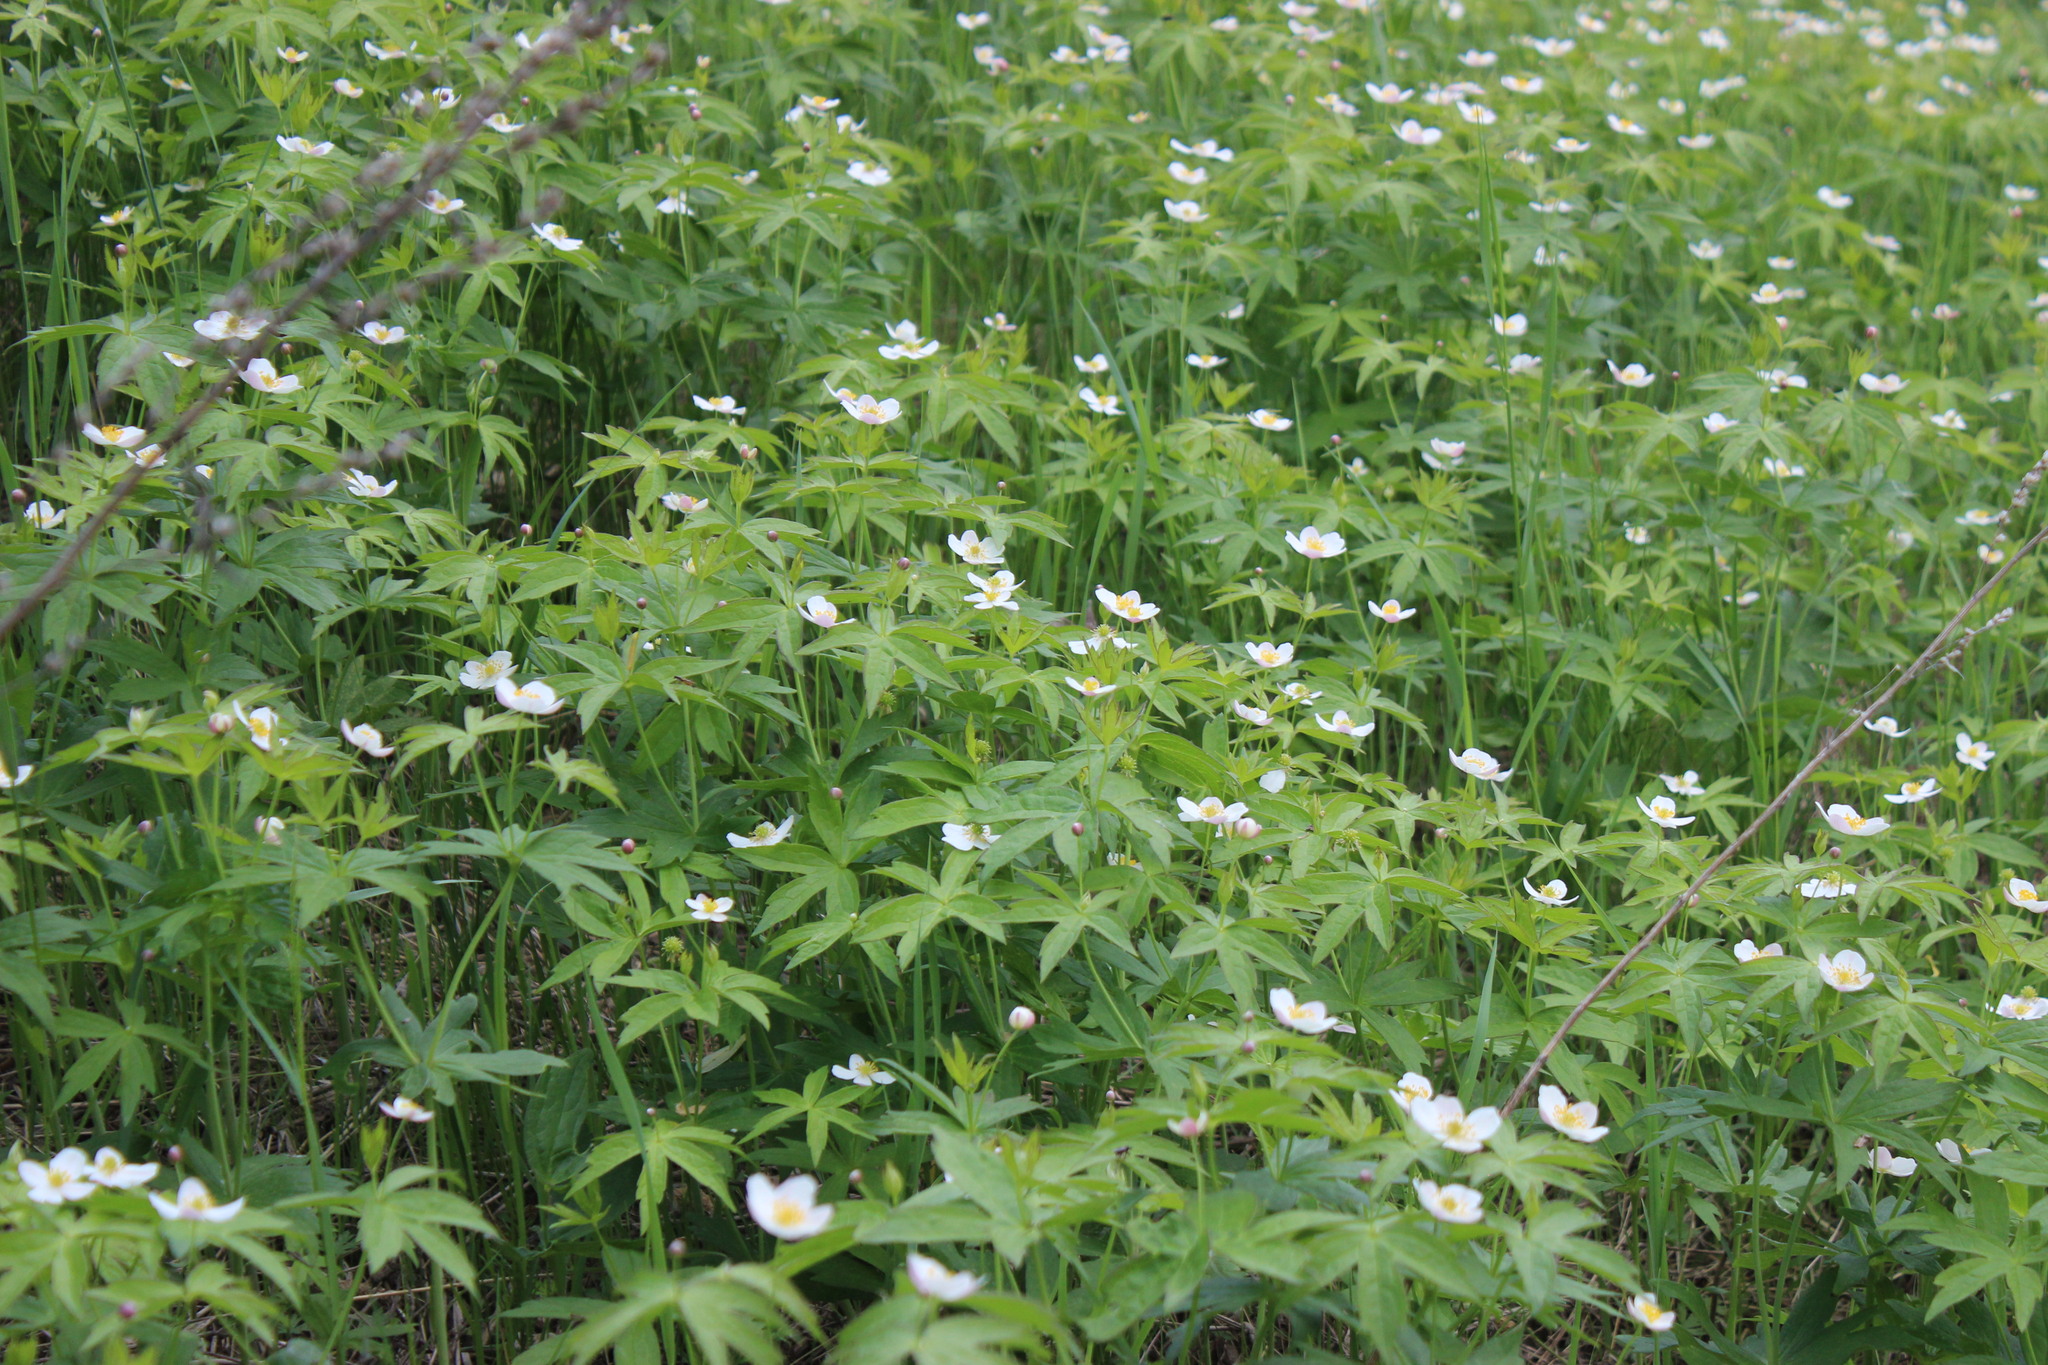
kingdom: Plantae
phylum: Tracheophyta
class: Magnoliopsida
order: Ranunculales
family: Ranunculaceae
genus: Anemonastrum
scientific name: Anemonastrum dichotomum
